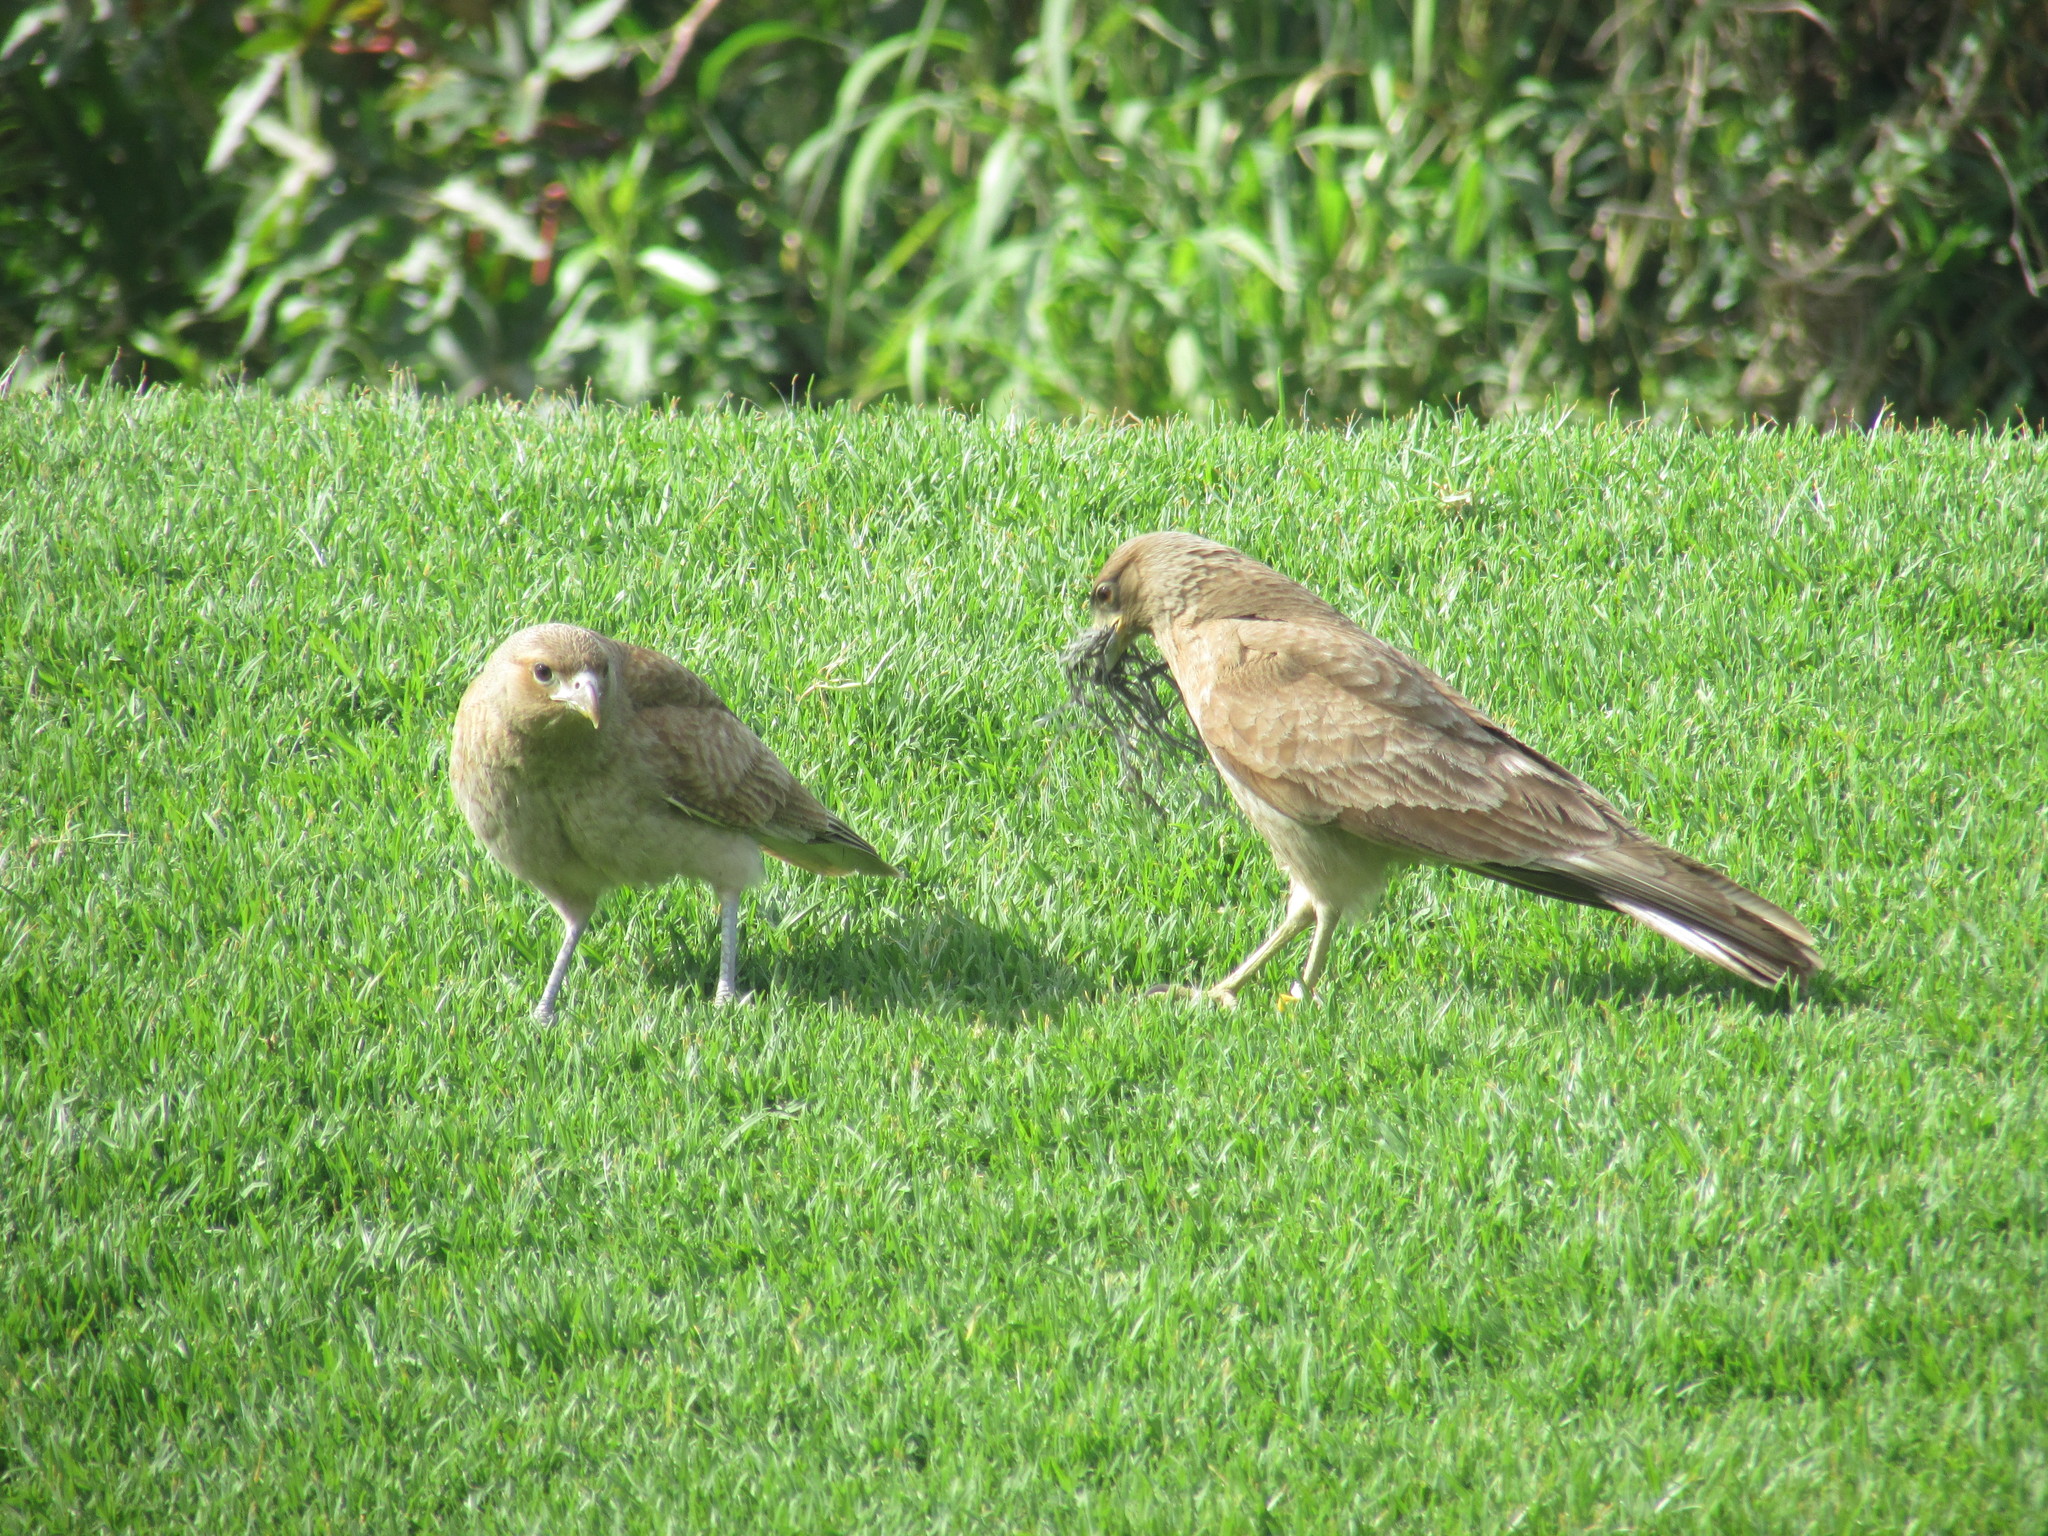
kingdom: Animalia
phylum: Chordata
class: Aves
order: Falconiformes
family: Falconidae
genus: Daptrius
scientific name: Daptrius
